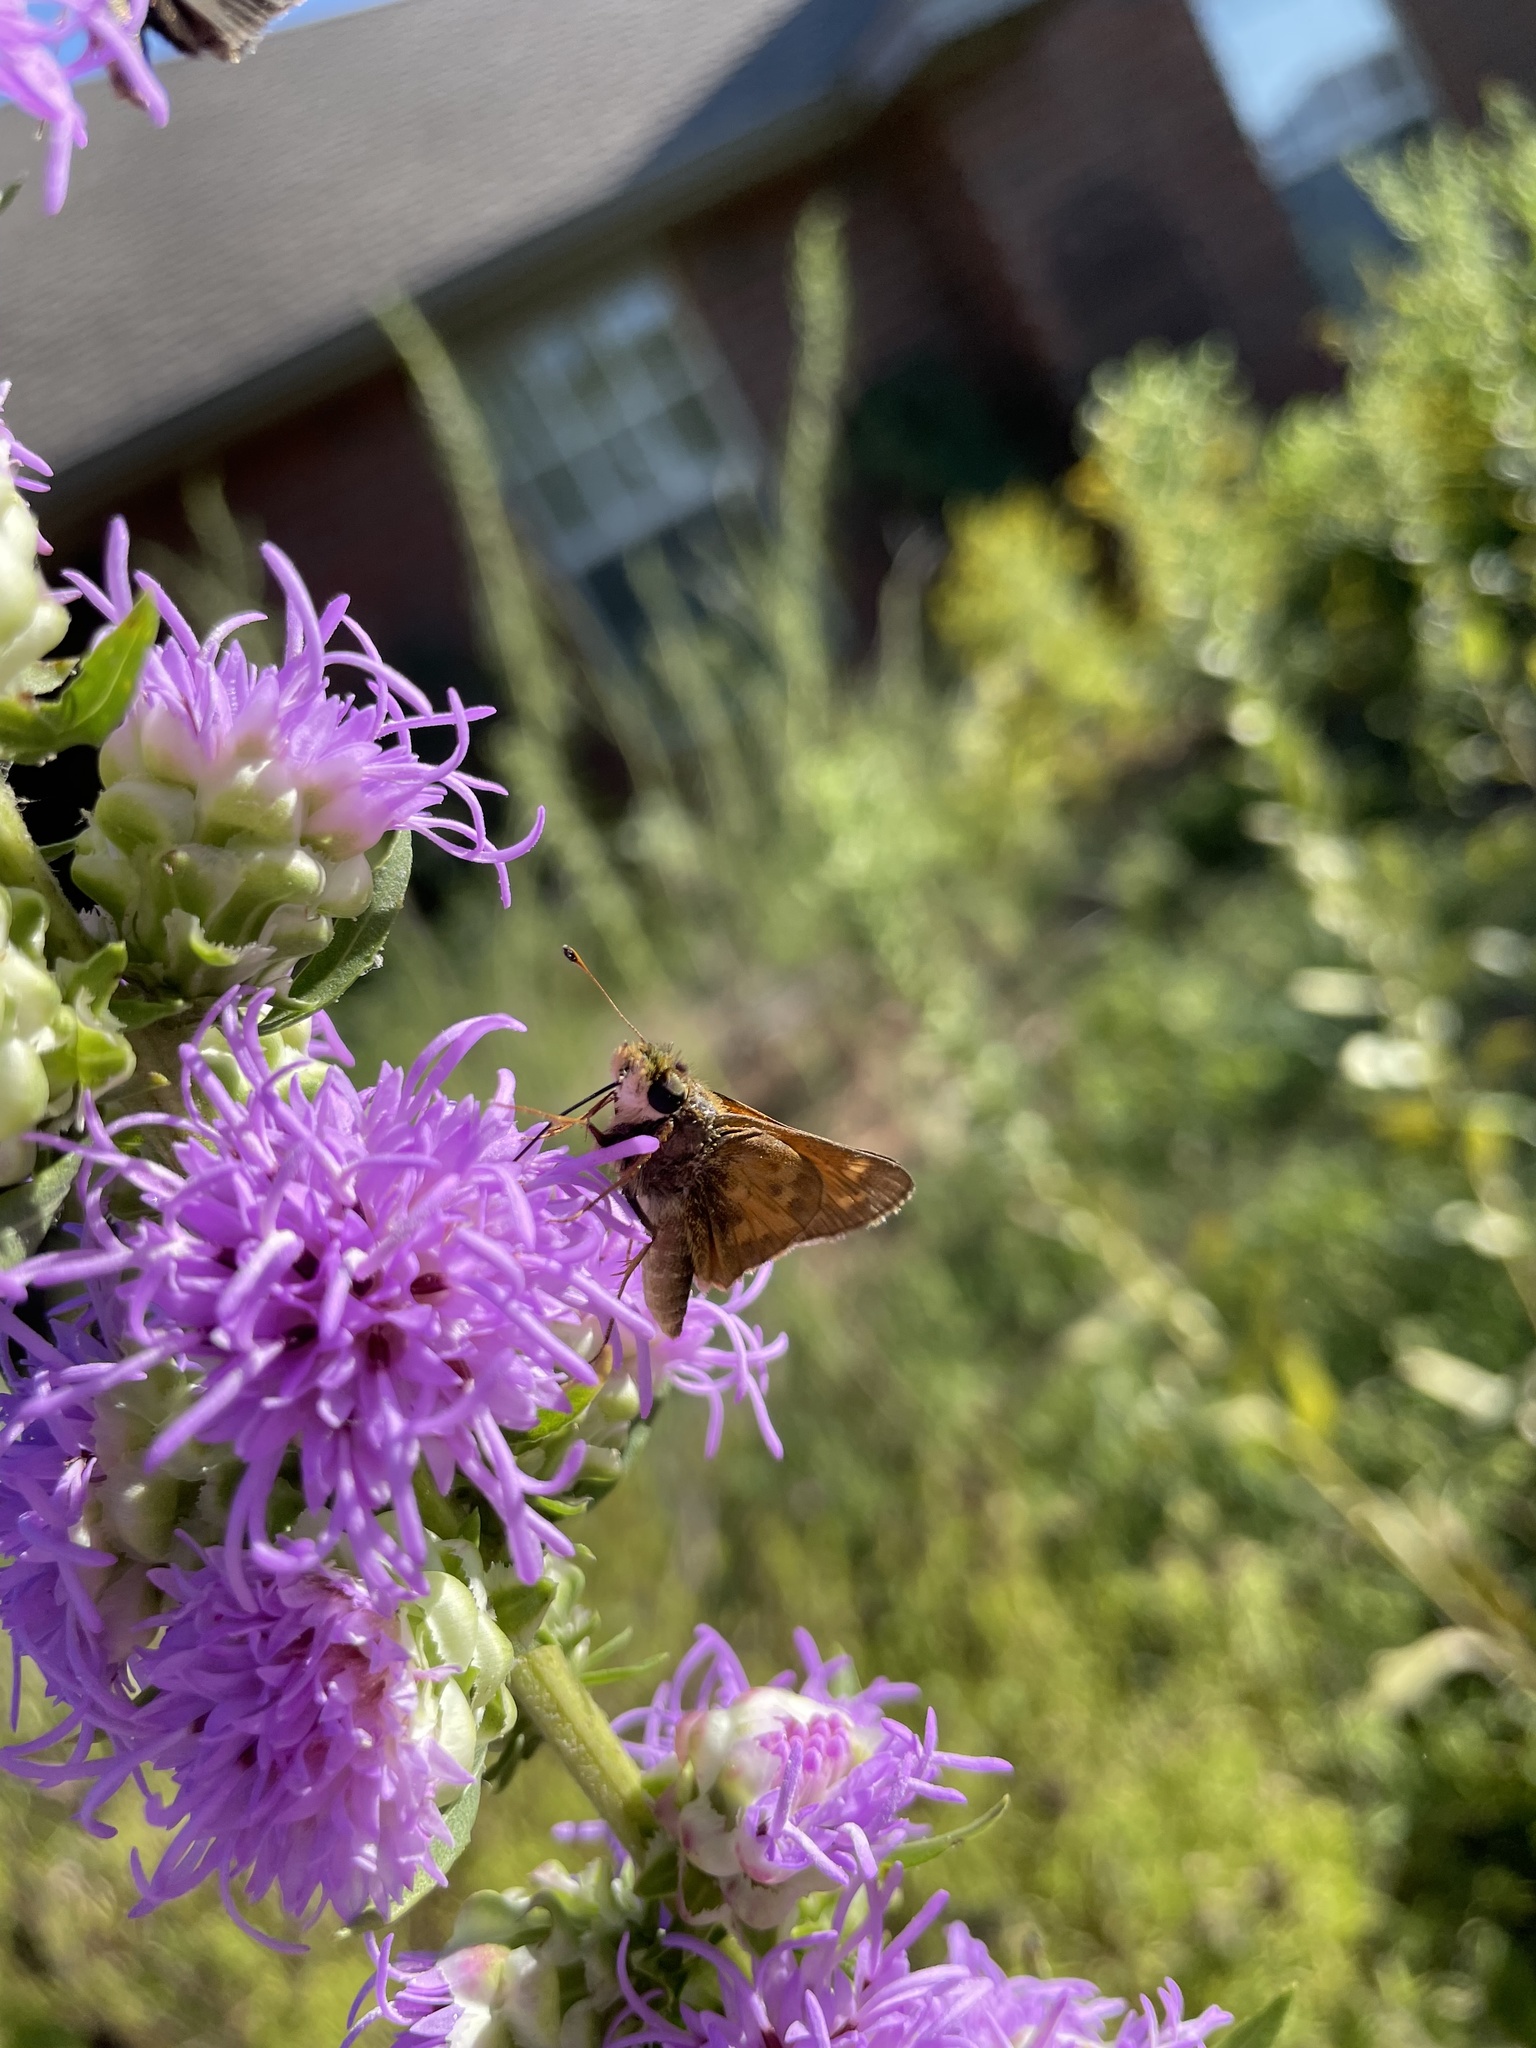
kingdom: Animalia
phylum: Arthropoda
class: Insecta
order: Lepidoptera
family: Hesperiidae
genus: Atalopedes
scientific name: Atalopedes
